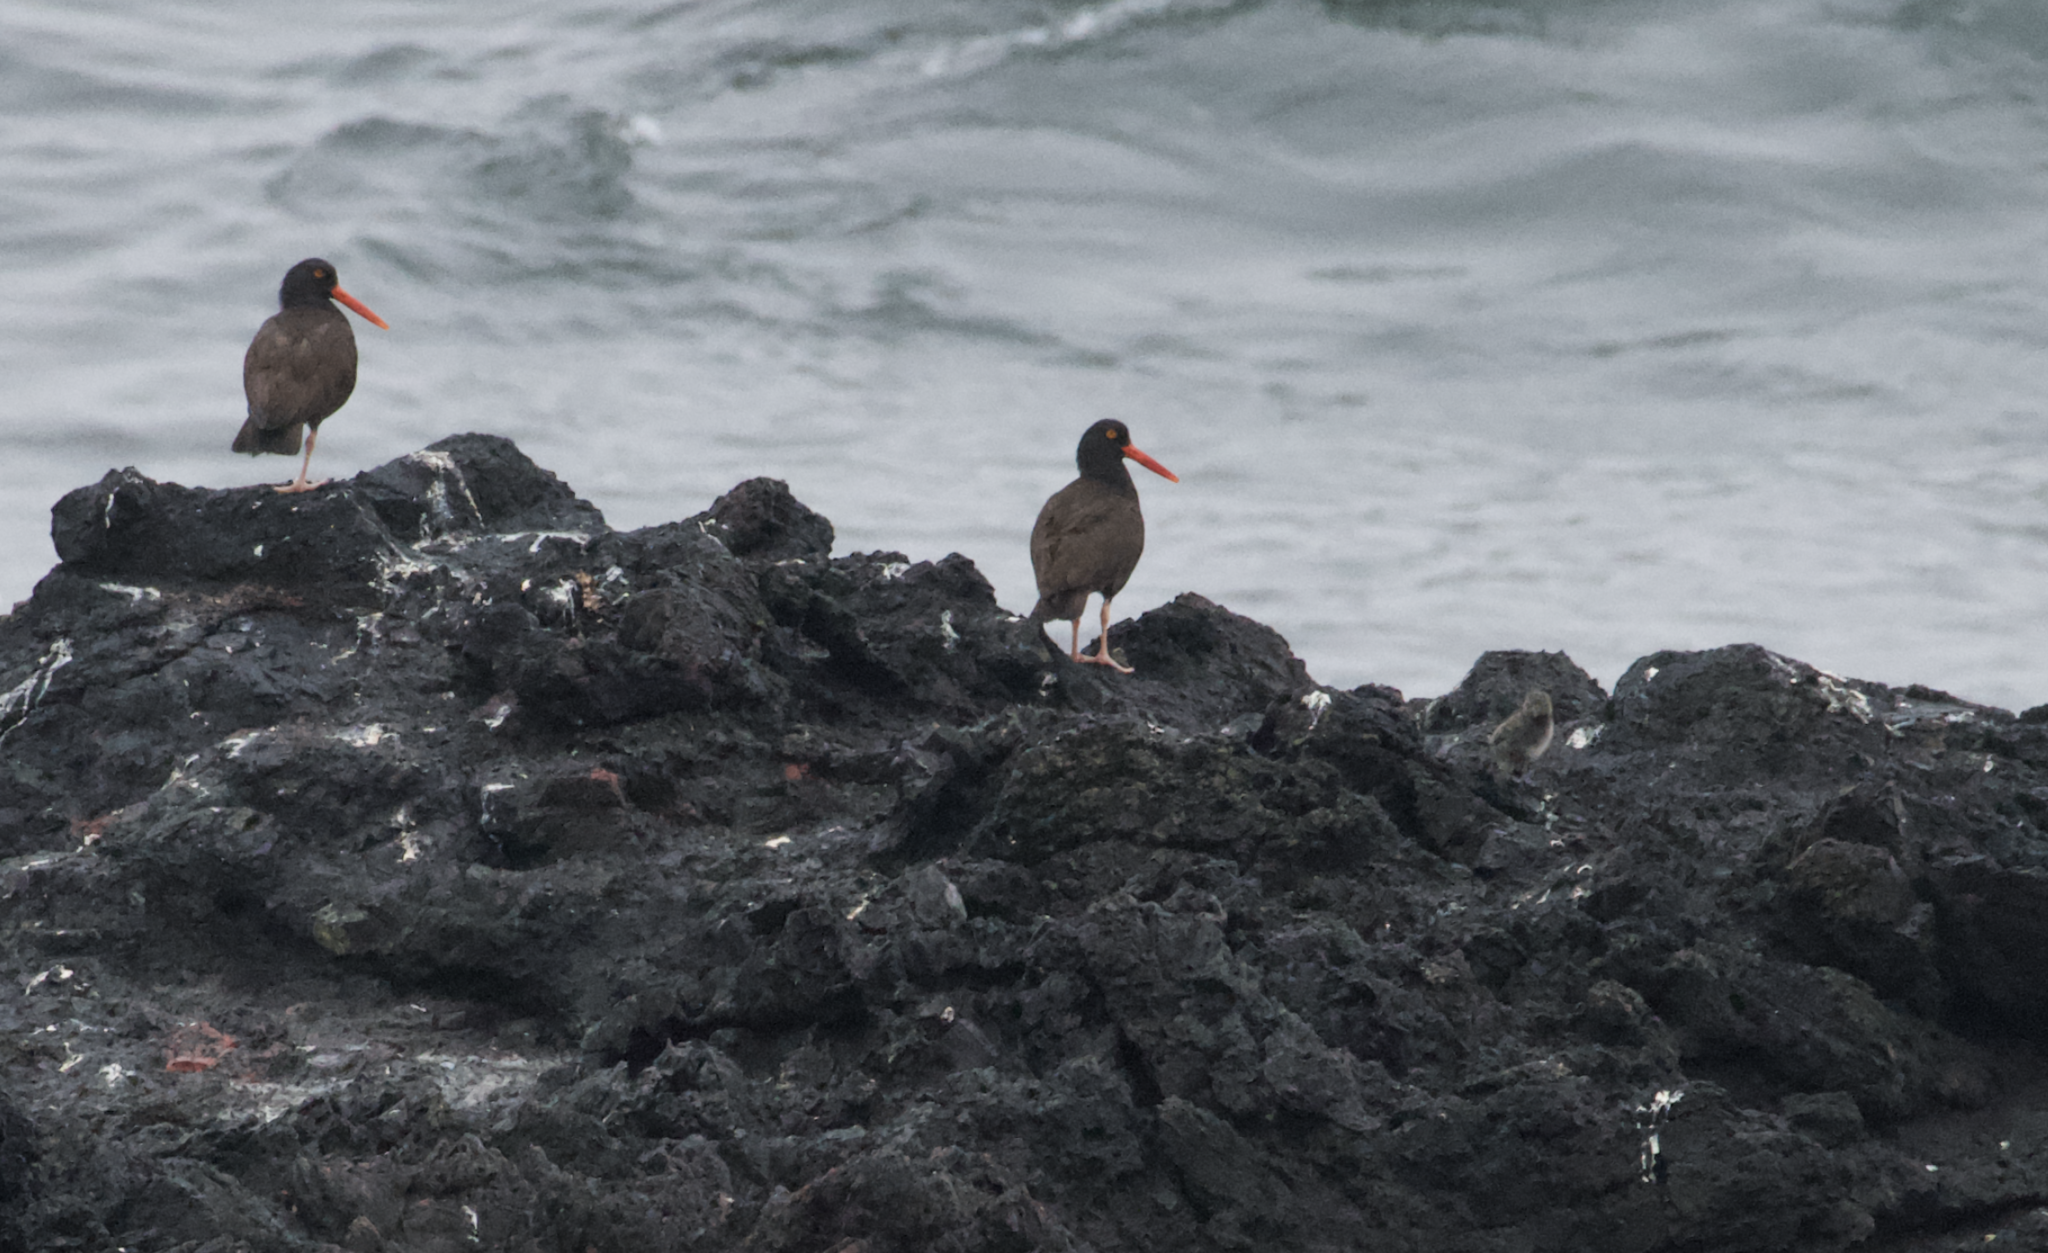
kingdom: Animalia
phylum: Chordata
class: Aves
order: Charadriiformes
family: Haematopodidae
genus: Haematopus
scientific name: Haematopus bachmani
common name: Black oystercatcher
